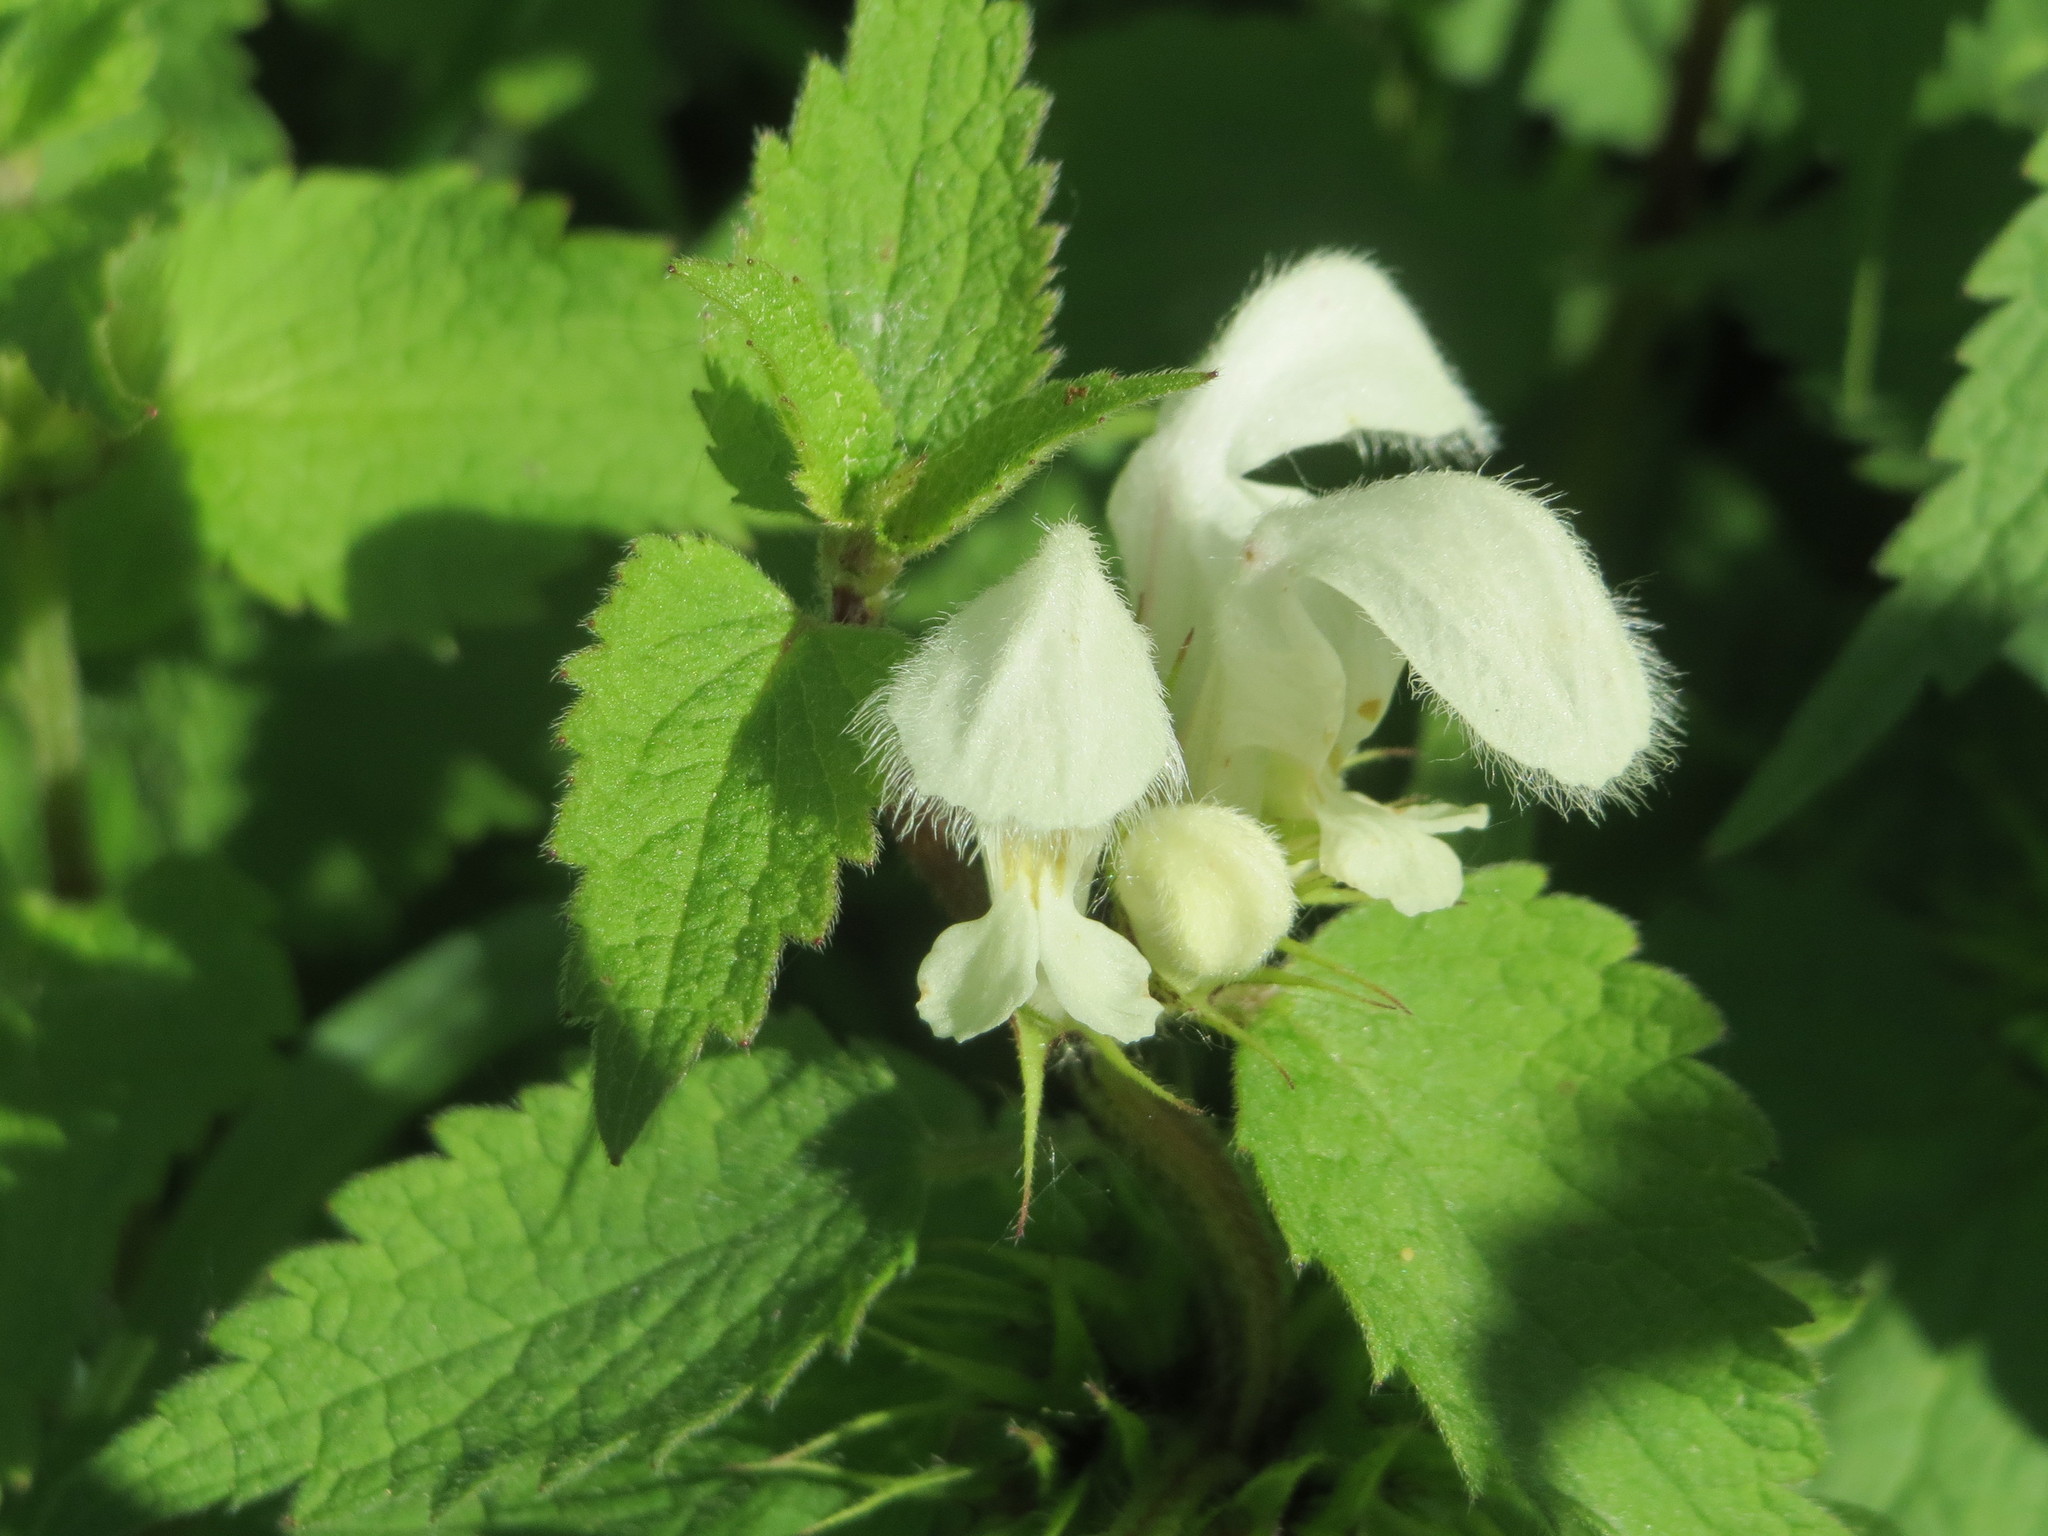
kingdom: Plantae
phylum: Tracheophyta
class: Magnoliopsida
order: Lamiales
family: Lamiaceae
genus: Lamium
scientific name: Lamium album
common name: White dead-nettle
